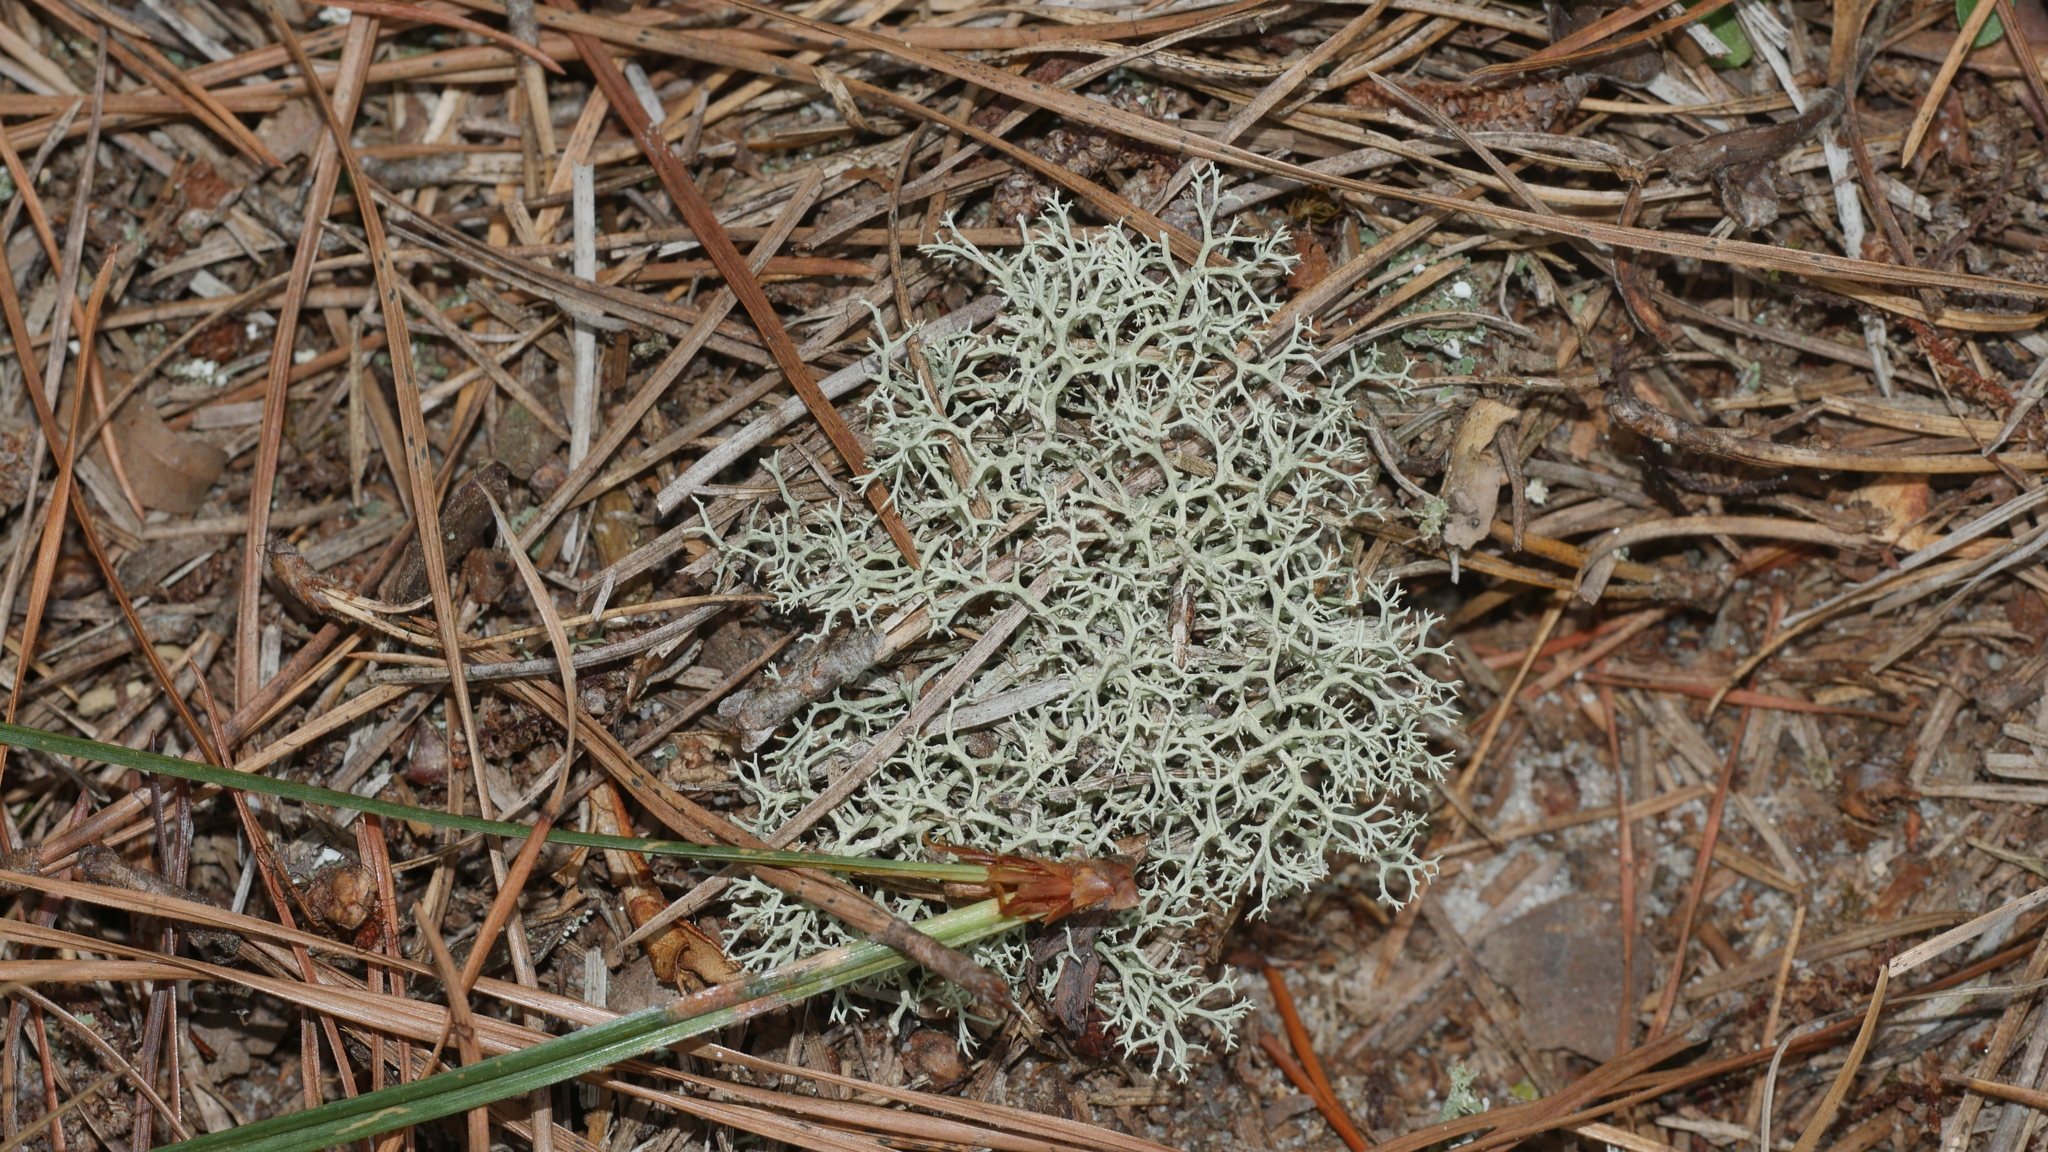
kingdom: Fungi
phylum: Ascomycota
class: Lecanoromycetes
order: Lecanorales
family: Cladoniaceae
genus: Cladonia
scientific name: Cladonia subtenuis
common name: Dixie reindeer lichen
